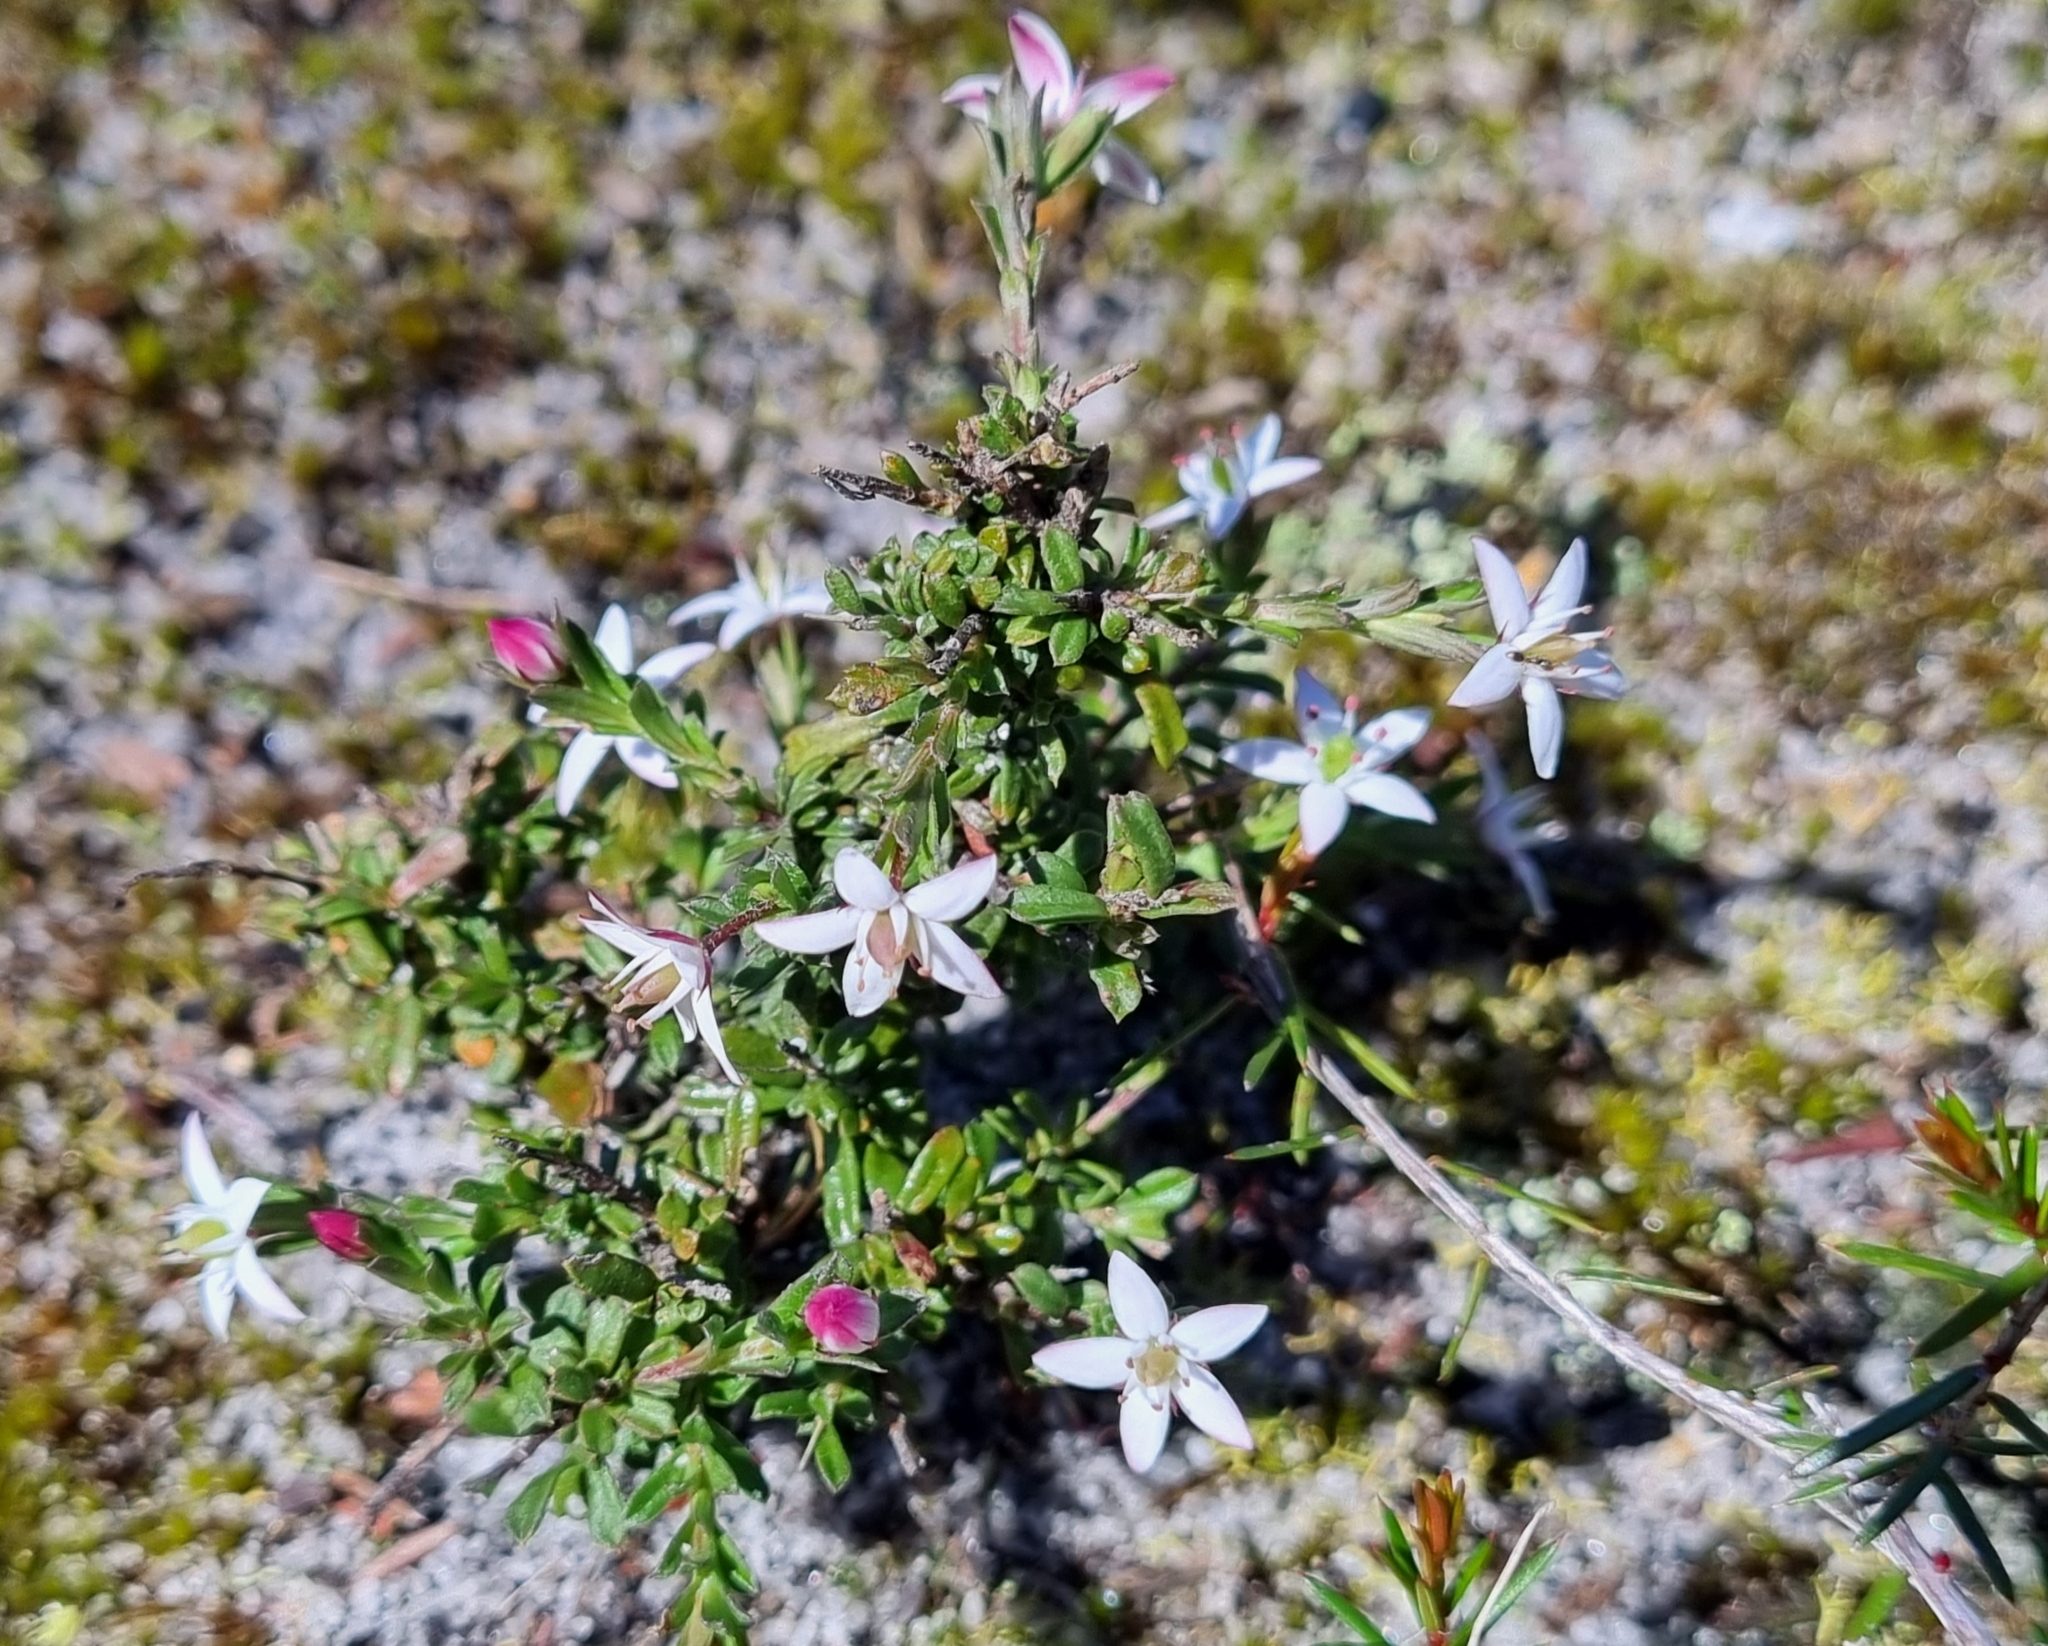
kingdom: Plantae
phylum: Tracheophyta
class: Magnoliopsida
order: Apiales
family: Pittosporaceae
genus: Rhytidosporum
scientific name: Rhytidosporum procumbens
